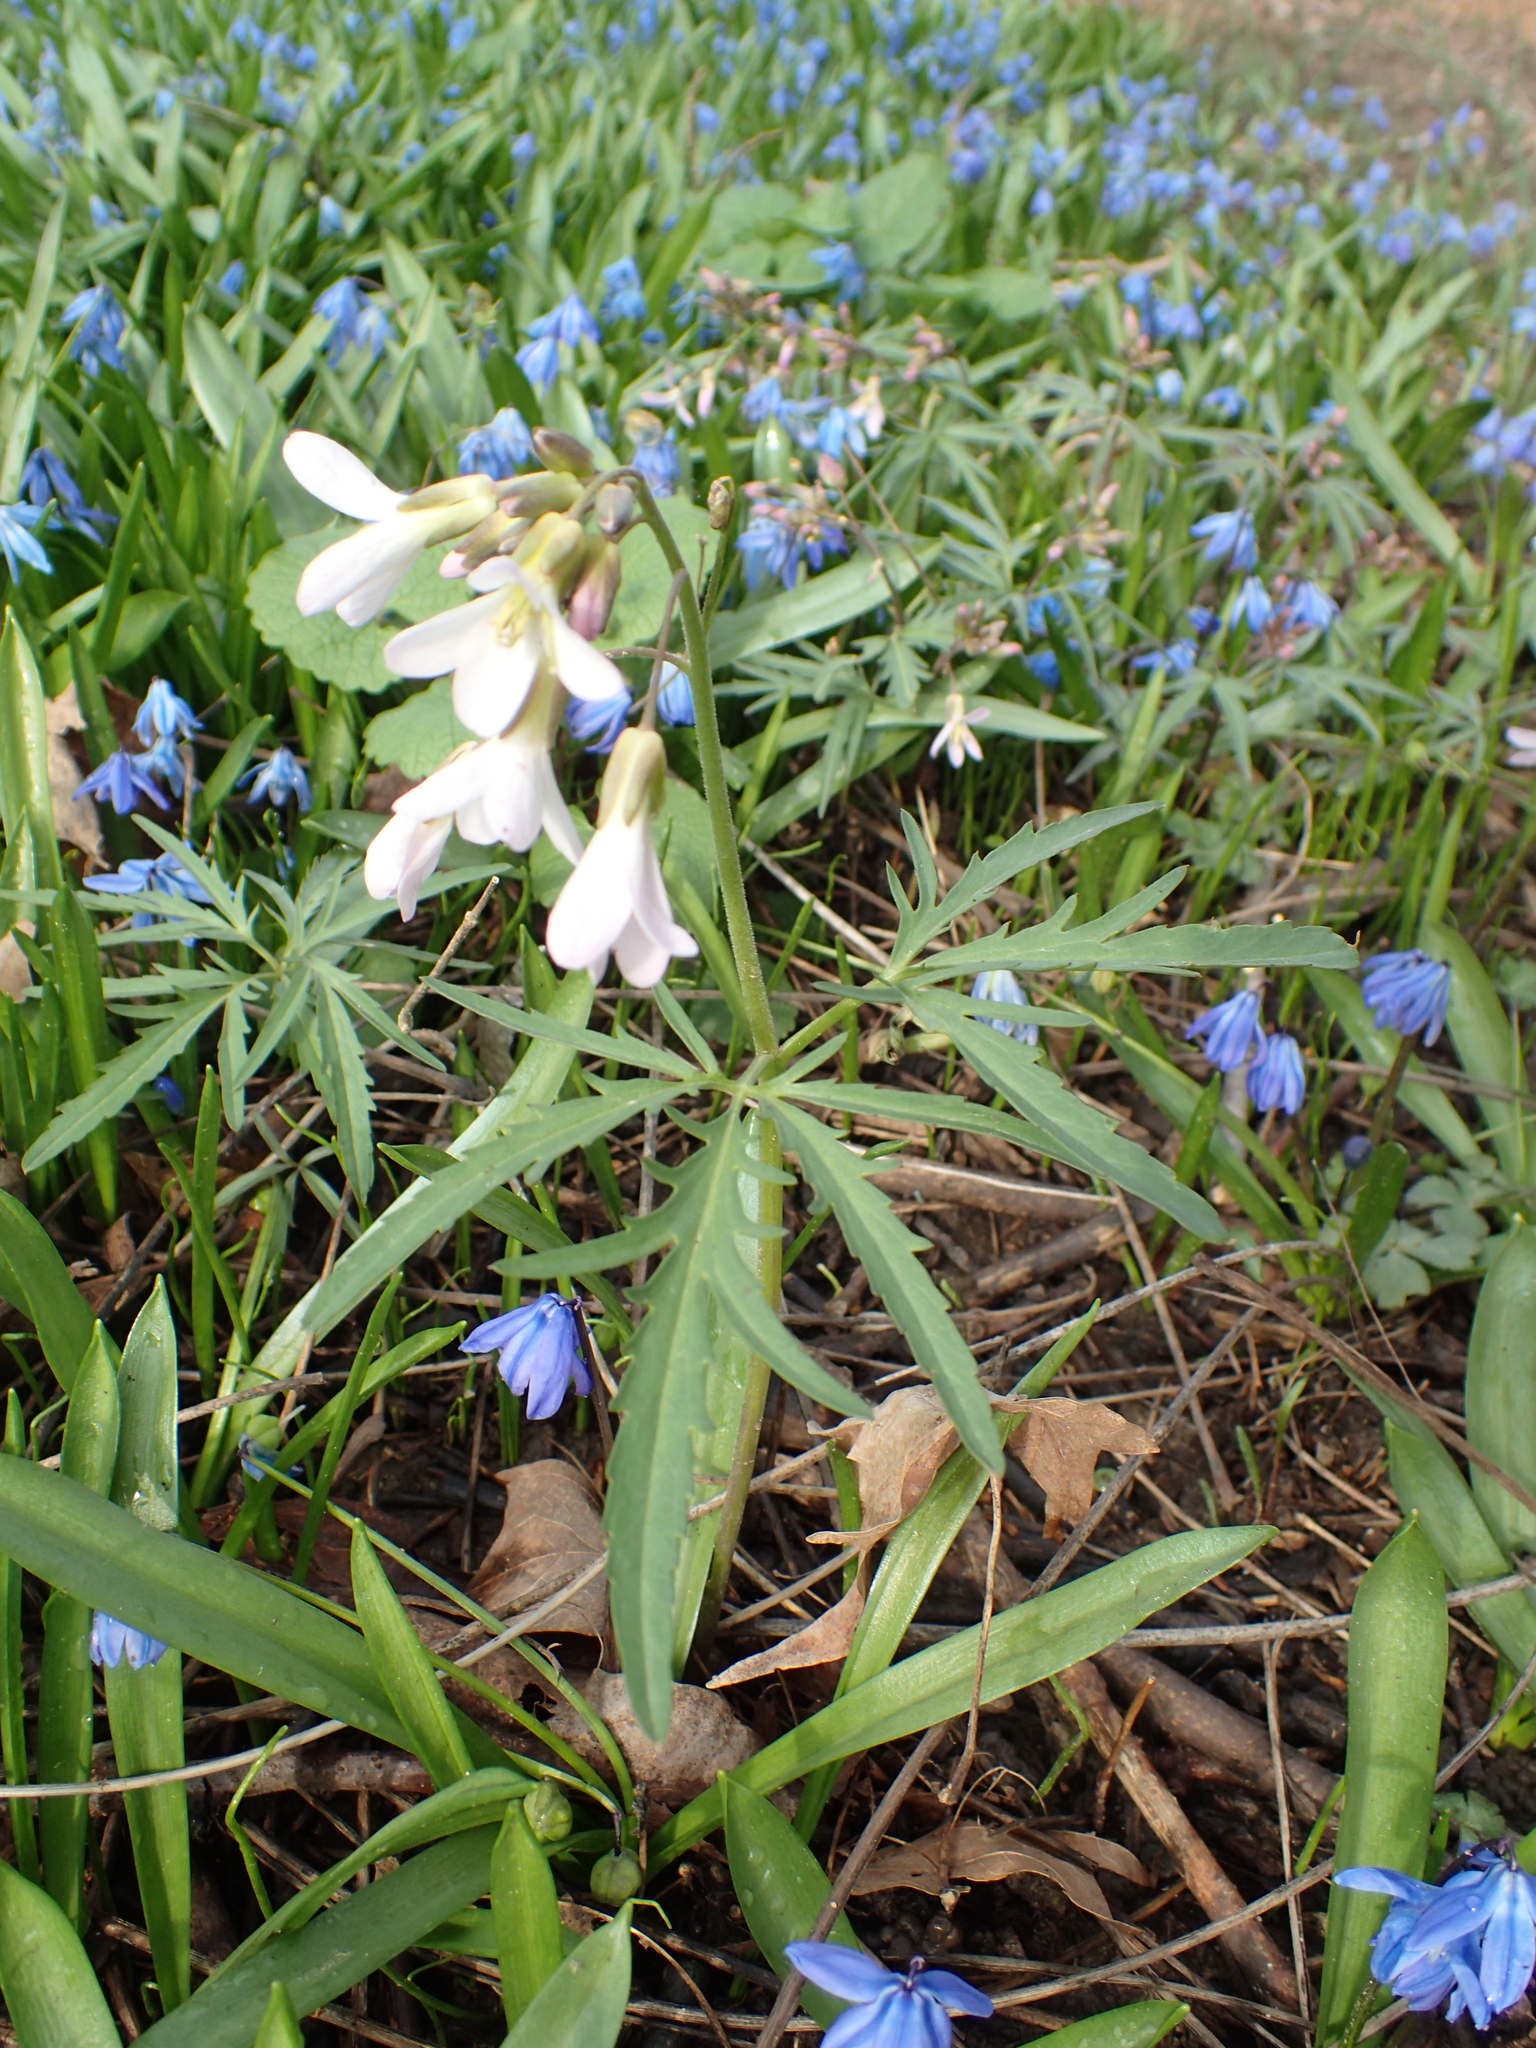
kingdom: Plantae
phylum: Tracheophyta
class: Magnoliopsida
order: Brassicales
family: Brassicaceae
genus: Cardamine
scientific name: Cardamine concatenata
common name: Cut-leaf toothcup
